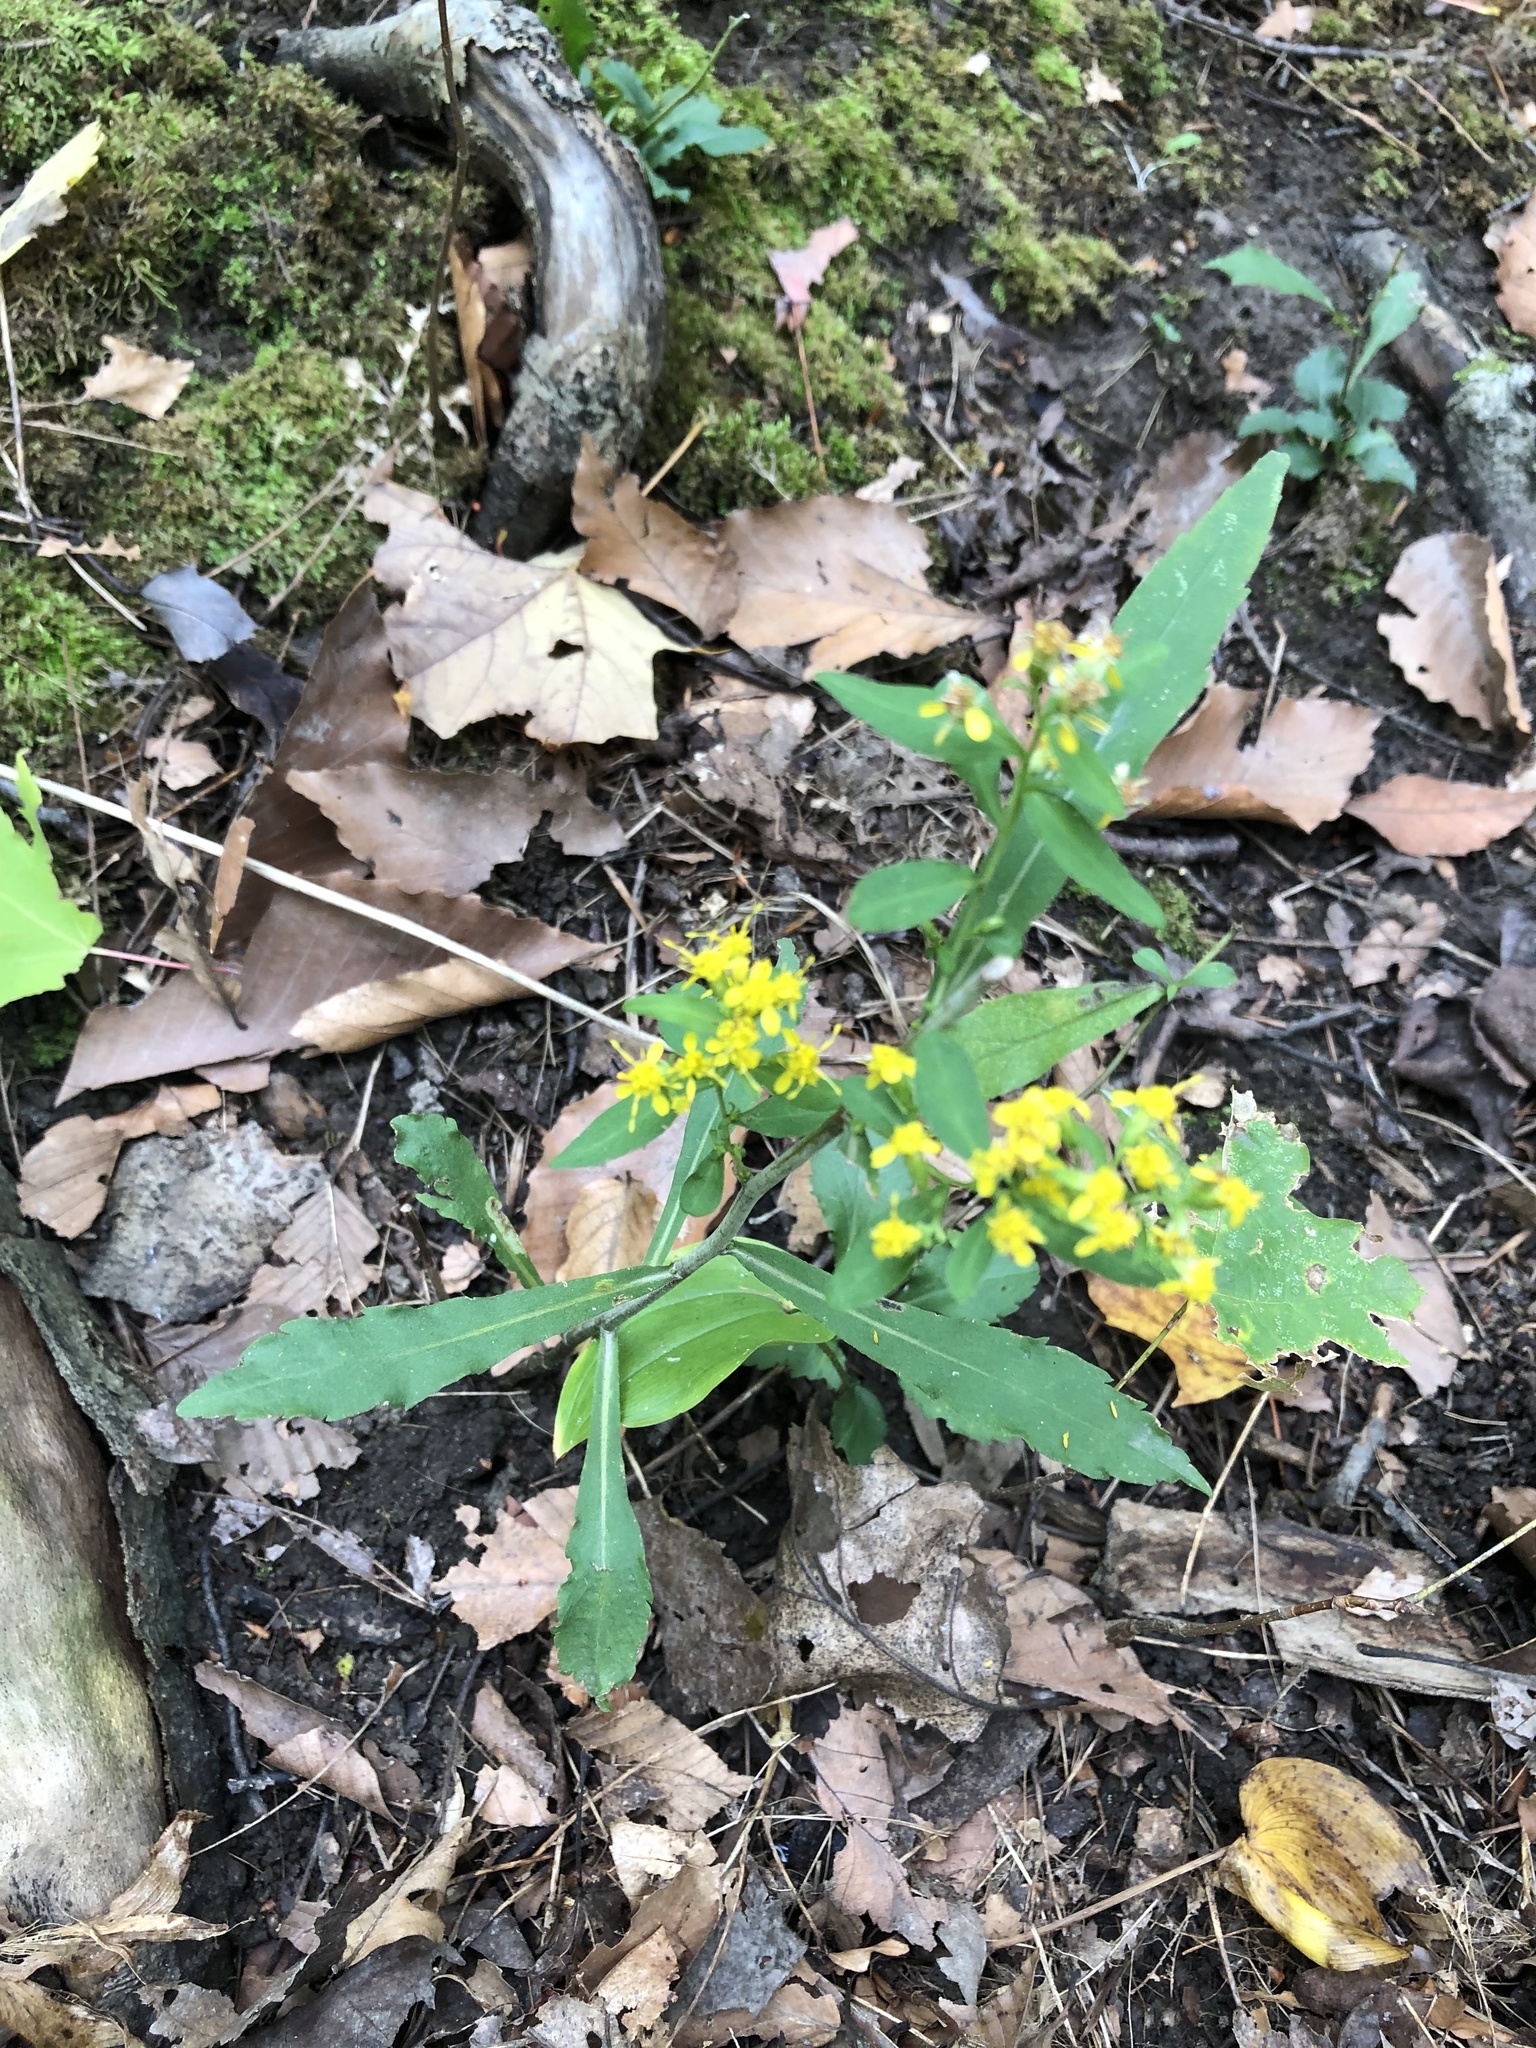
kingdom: Plantae
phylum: Tracheophyta
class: Magnoliopsida
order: Asterales
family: Asteraceae
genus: Solidago
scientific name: Solidago caesia
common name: Woodland goldenrod
